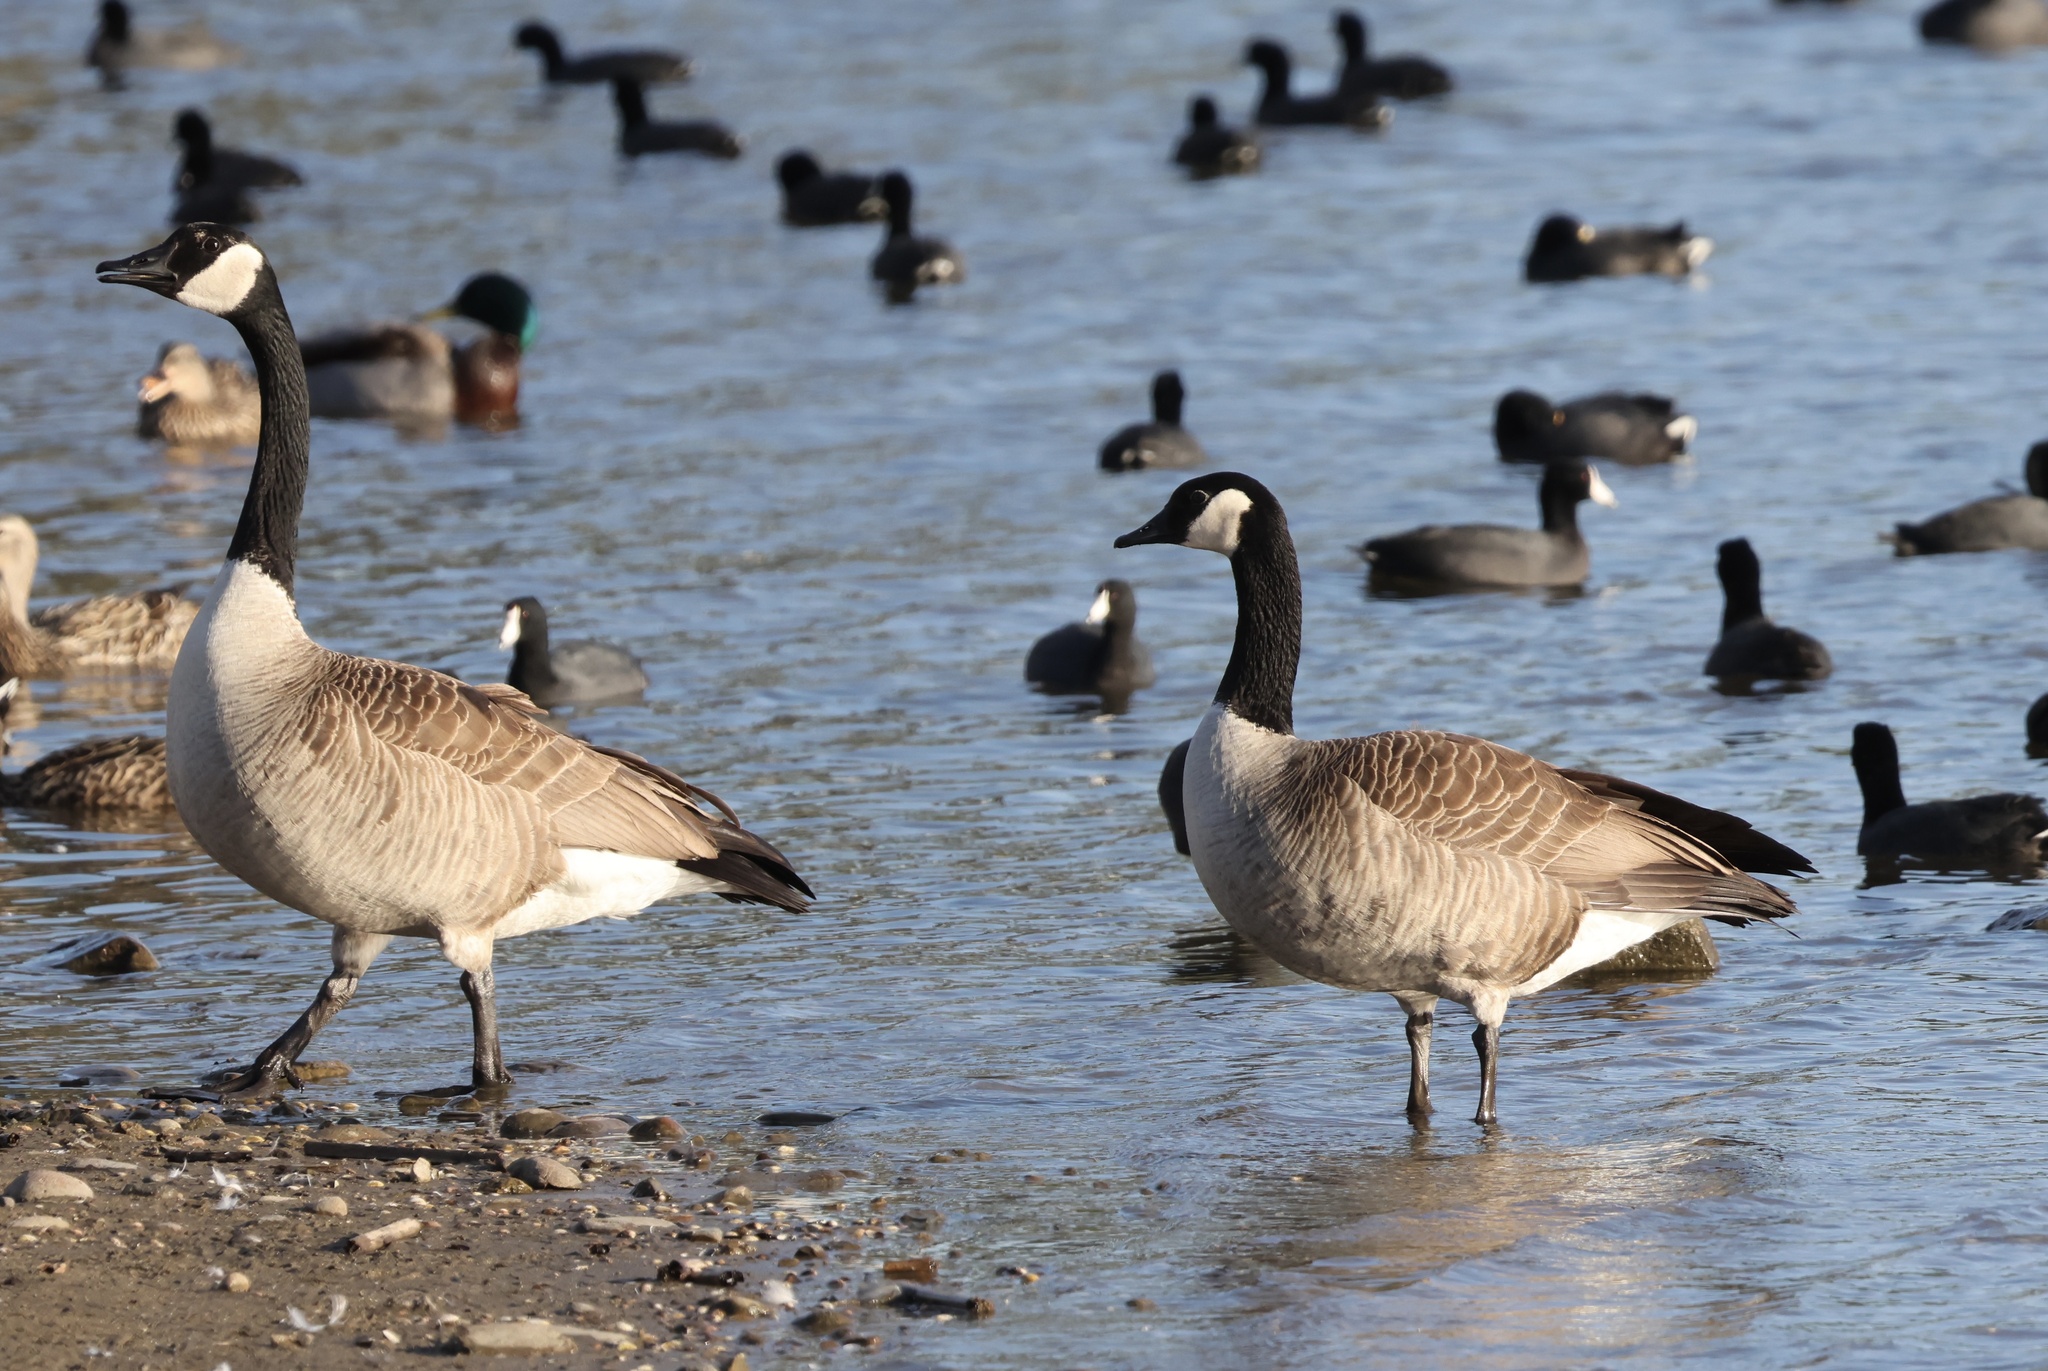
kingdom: Animalia
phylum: Chordata
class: Aves
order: Anseriformes
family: Anatidae
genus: Branta
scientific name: Branta canadensis
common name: Canada goose
